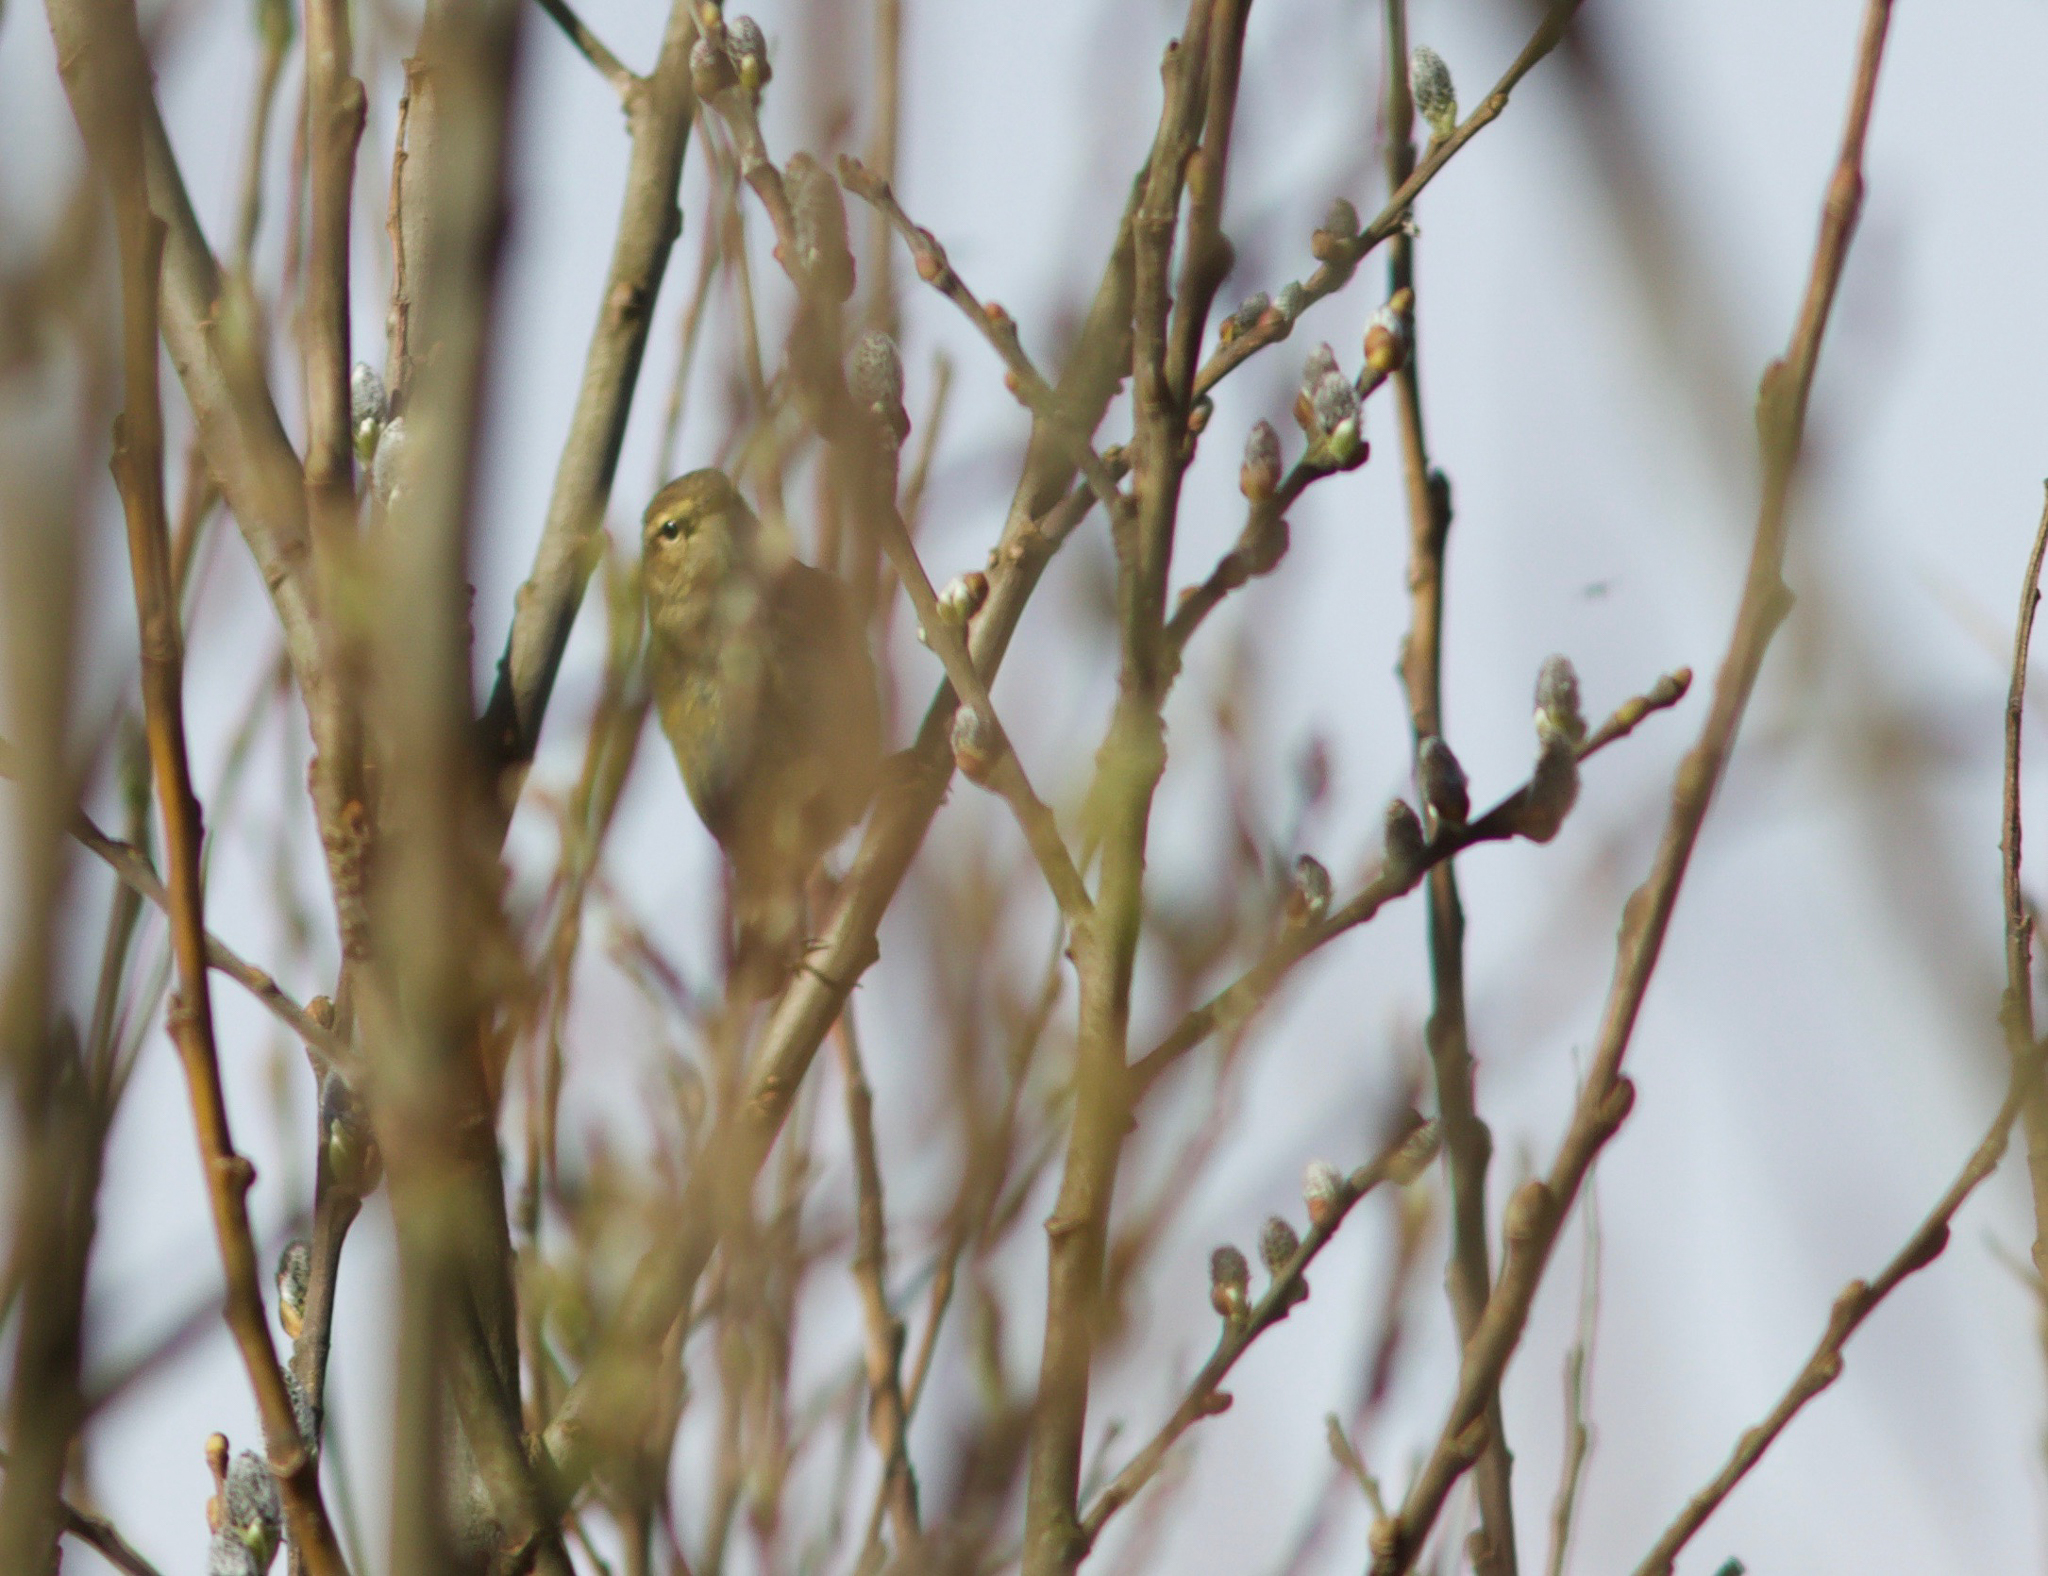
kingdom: Animalia
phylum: Chordata
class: Aves
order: Passeriformes
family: Phylloscopidae
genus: Phylloscopus
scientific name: Phylloscopus collybita
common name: Common chiffchaff
